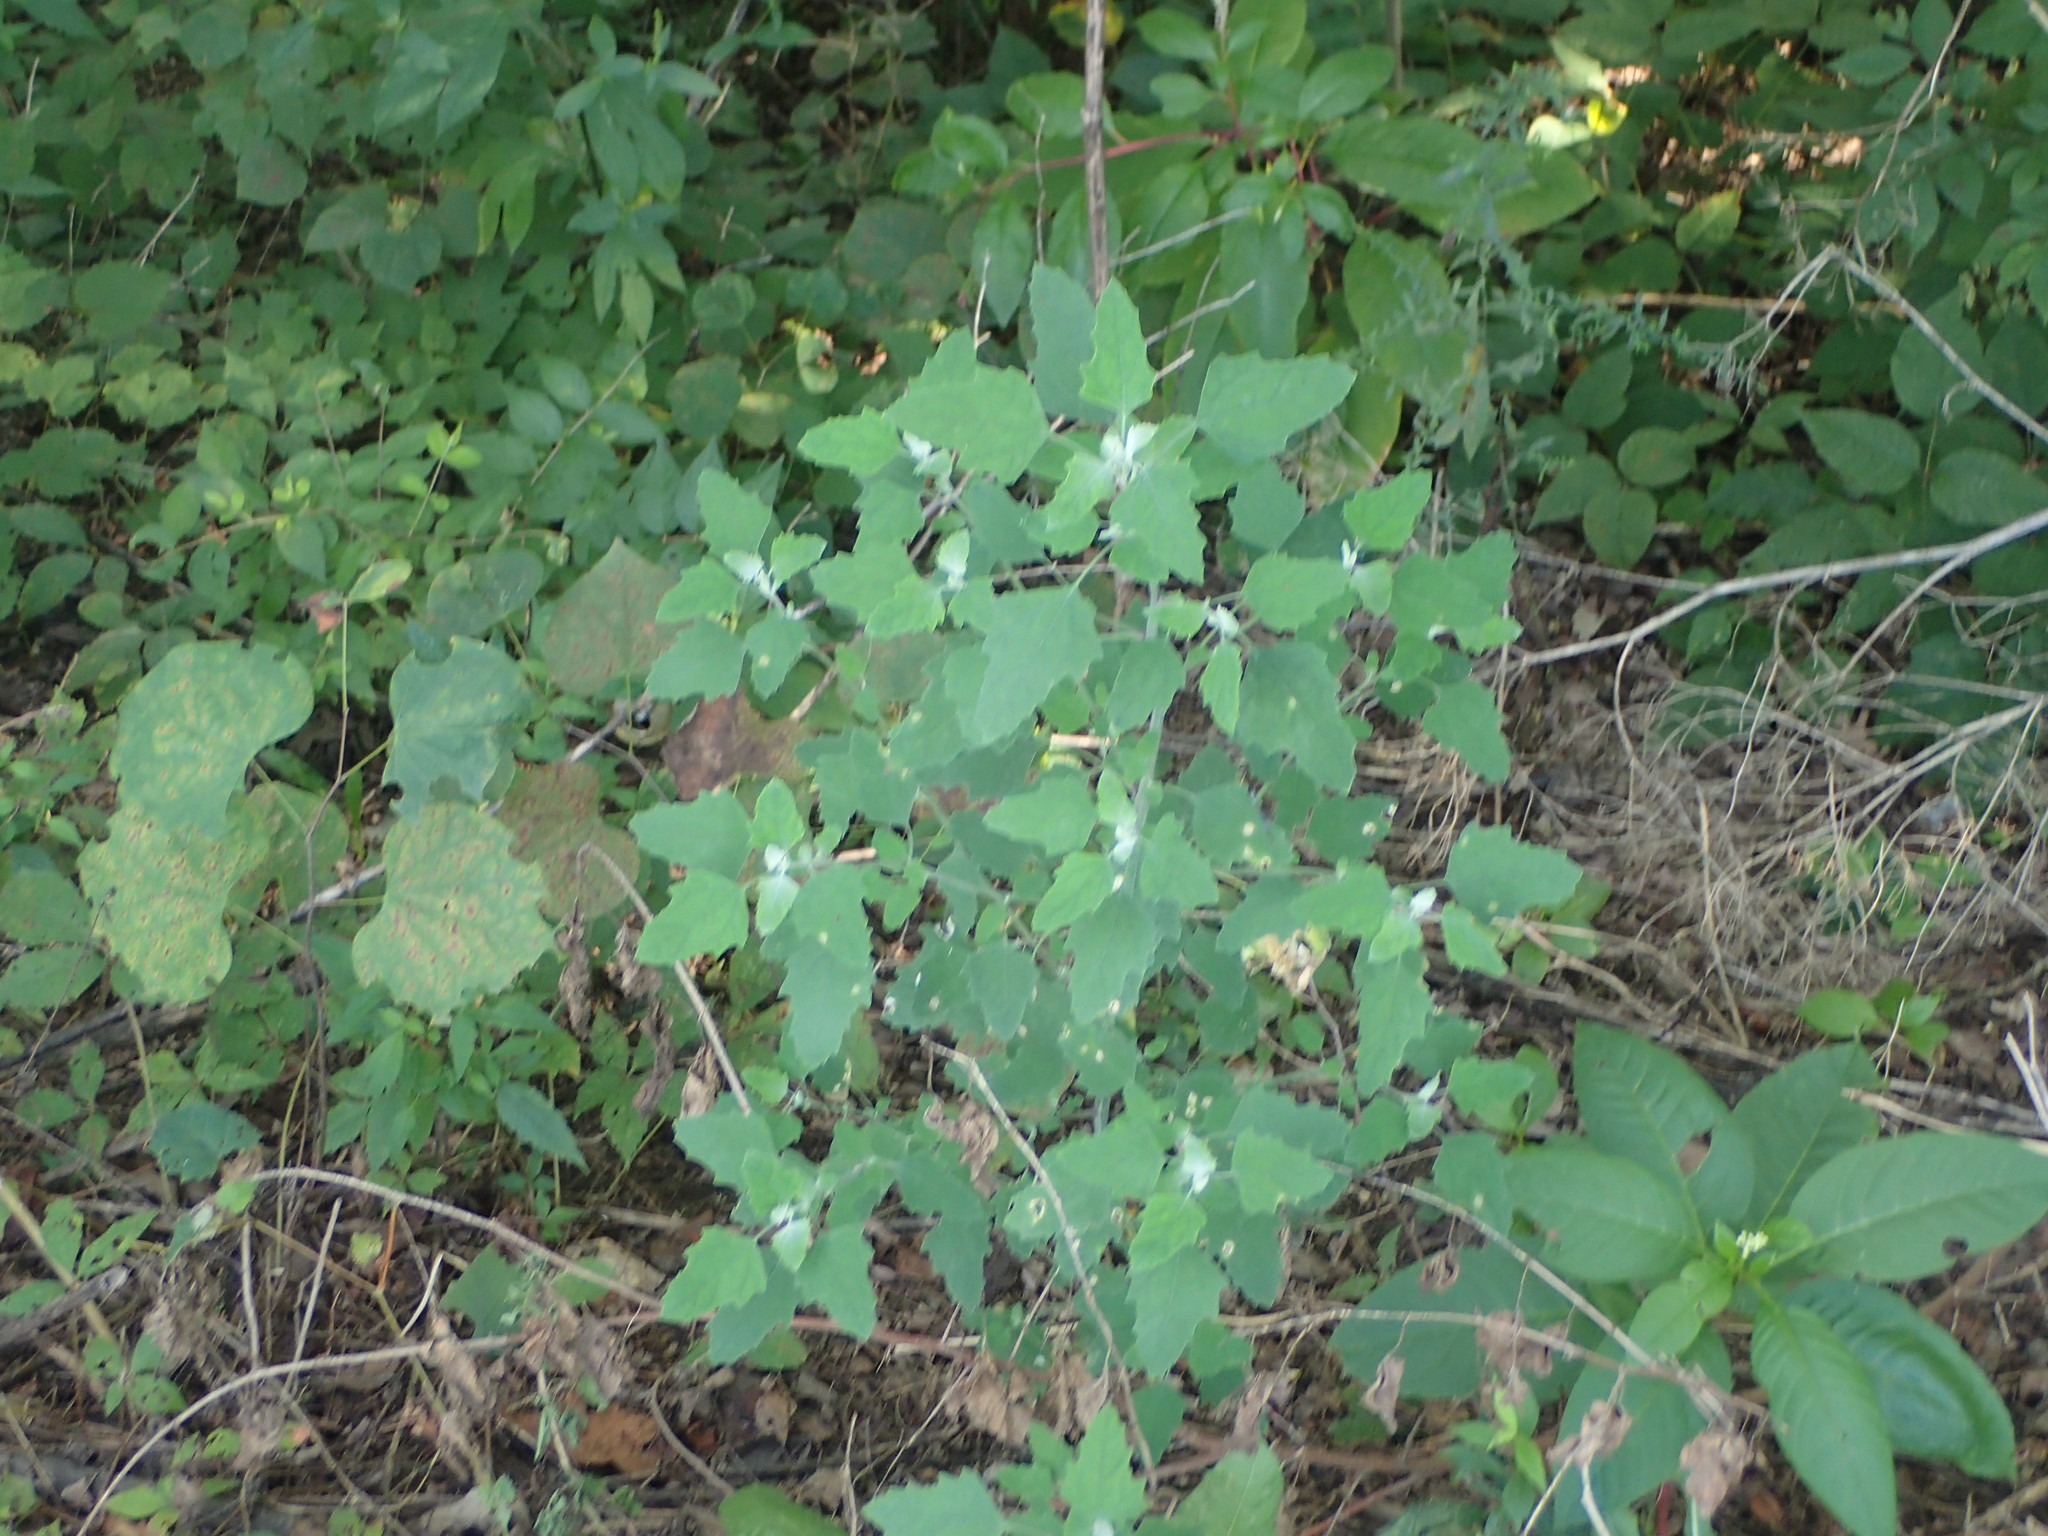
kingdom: Plantae
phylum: Tracheophyta
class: Magnoliopsida
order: Caryophyllales
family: Amaranthaceae
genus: Chenopodium
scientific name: Chenopodium album
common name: Fat-hen
